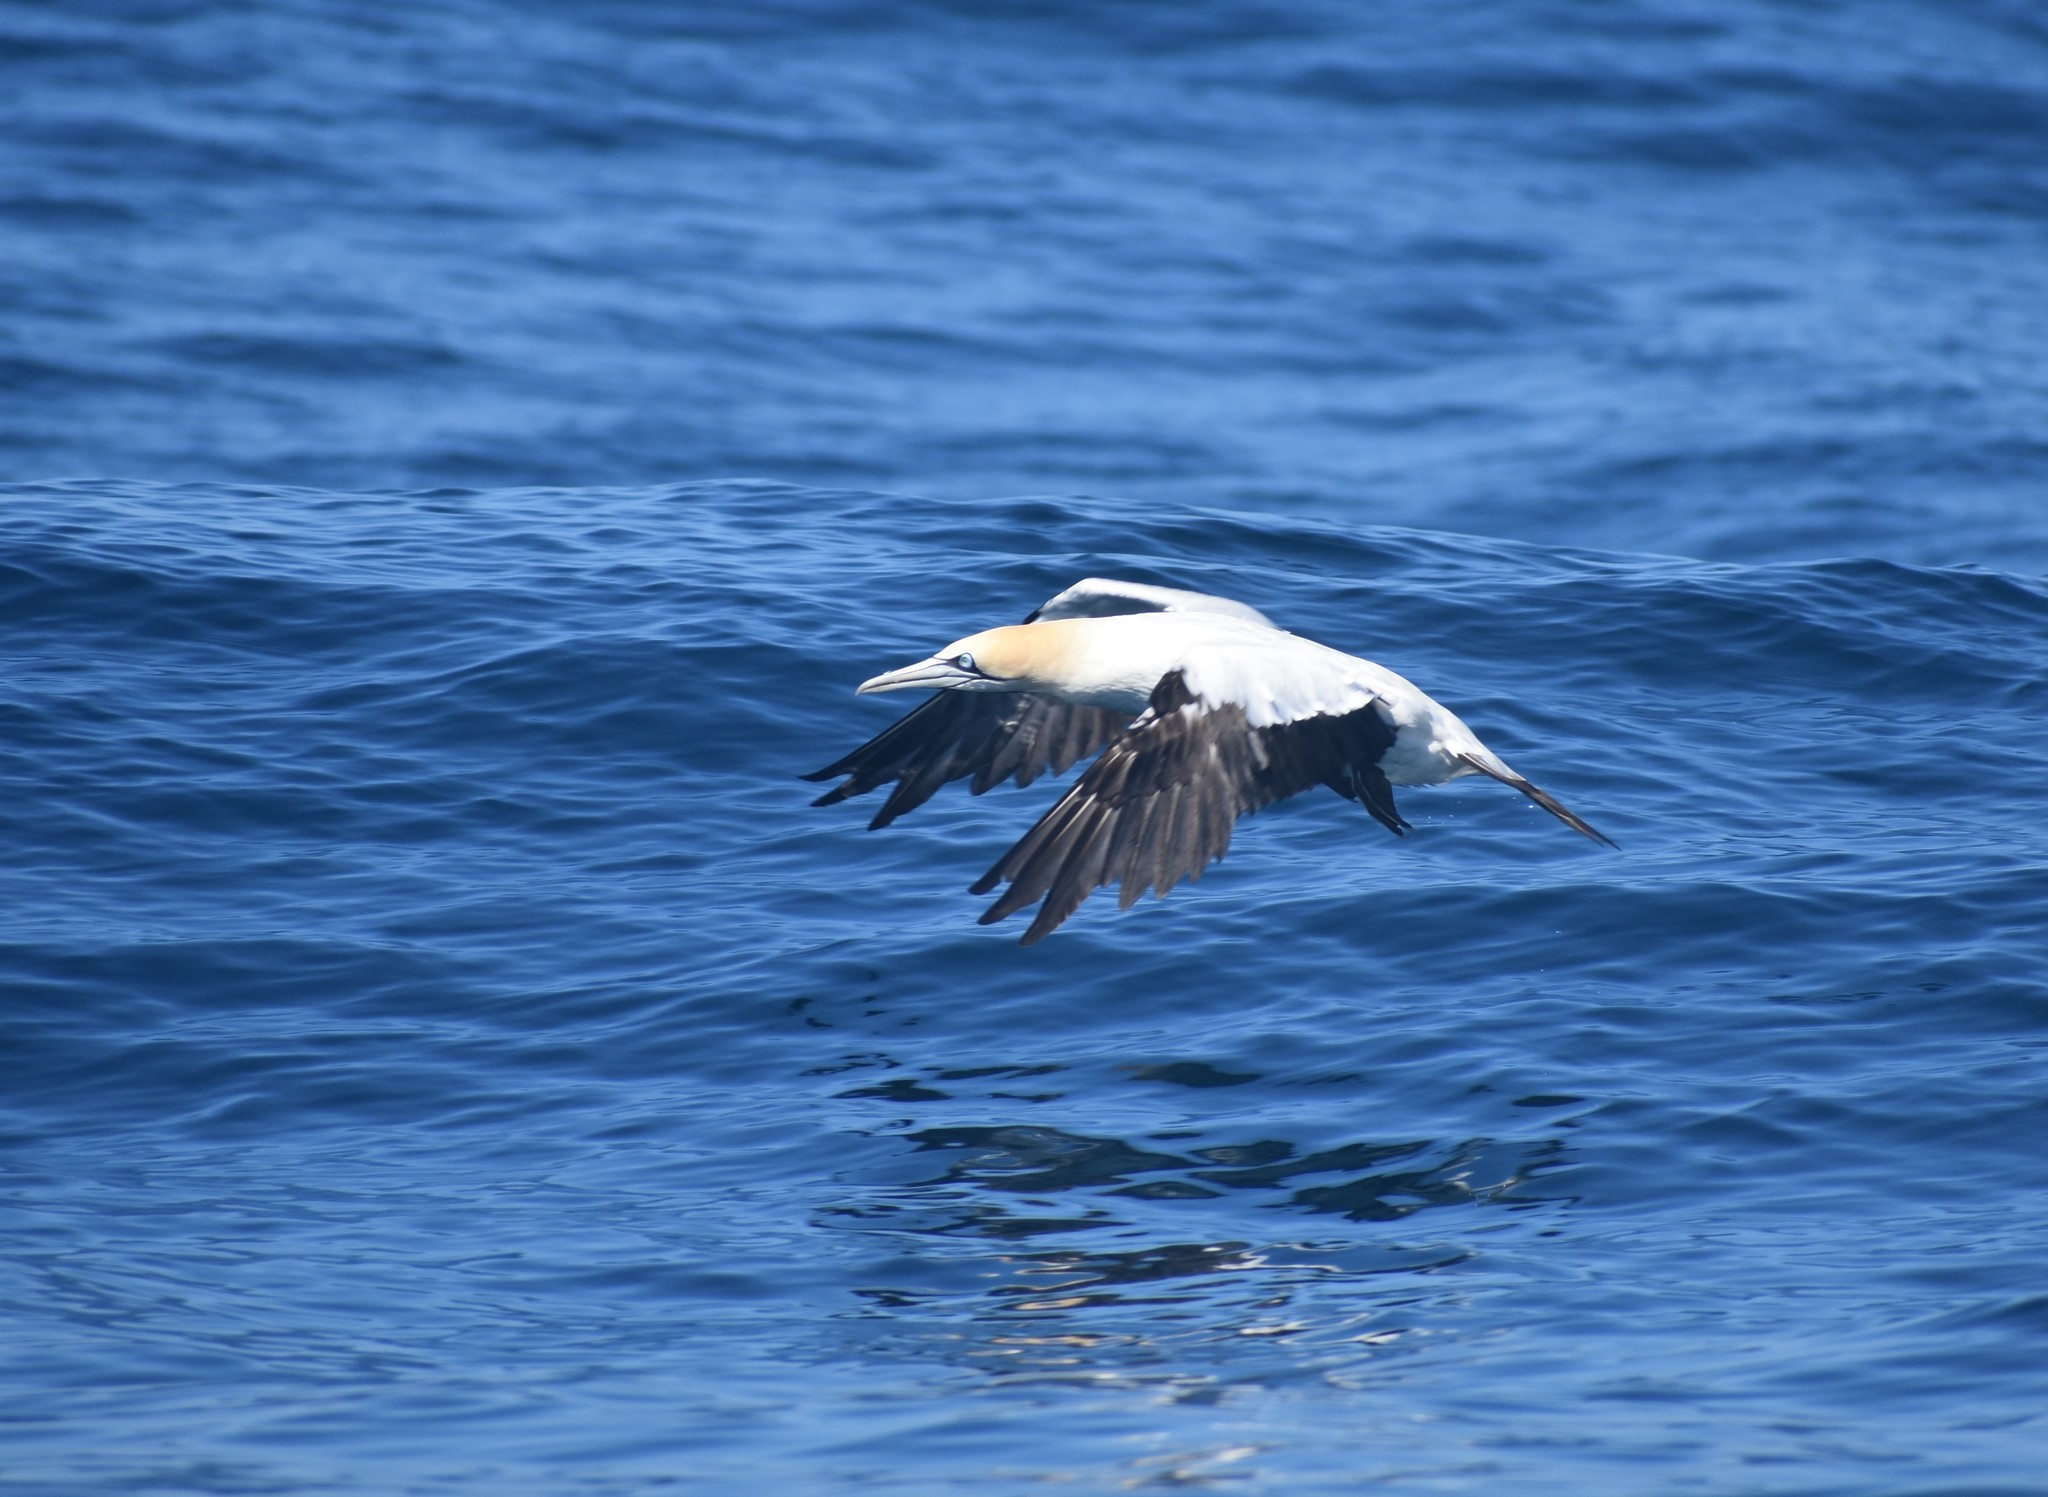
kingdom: Animalia
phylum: Chordata
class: Aves
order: Suliformes
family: Sulidae
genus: Morus
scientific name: Morus capensis
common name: Cape gannet
